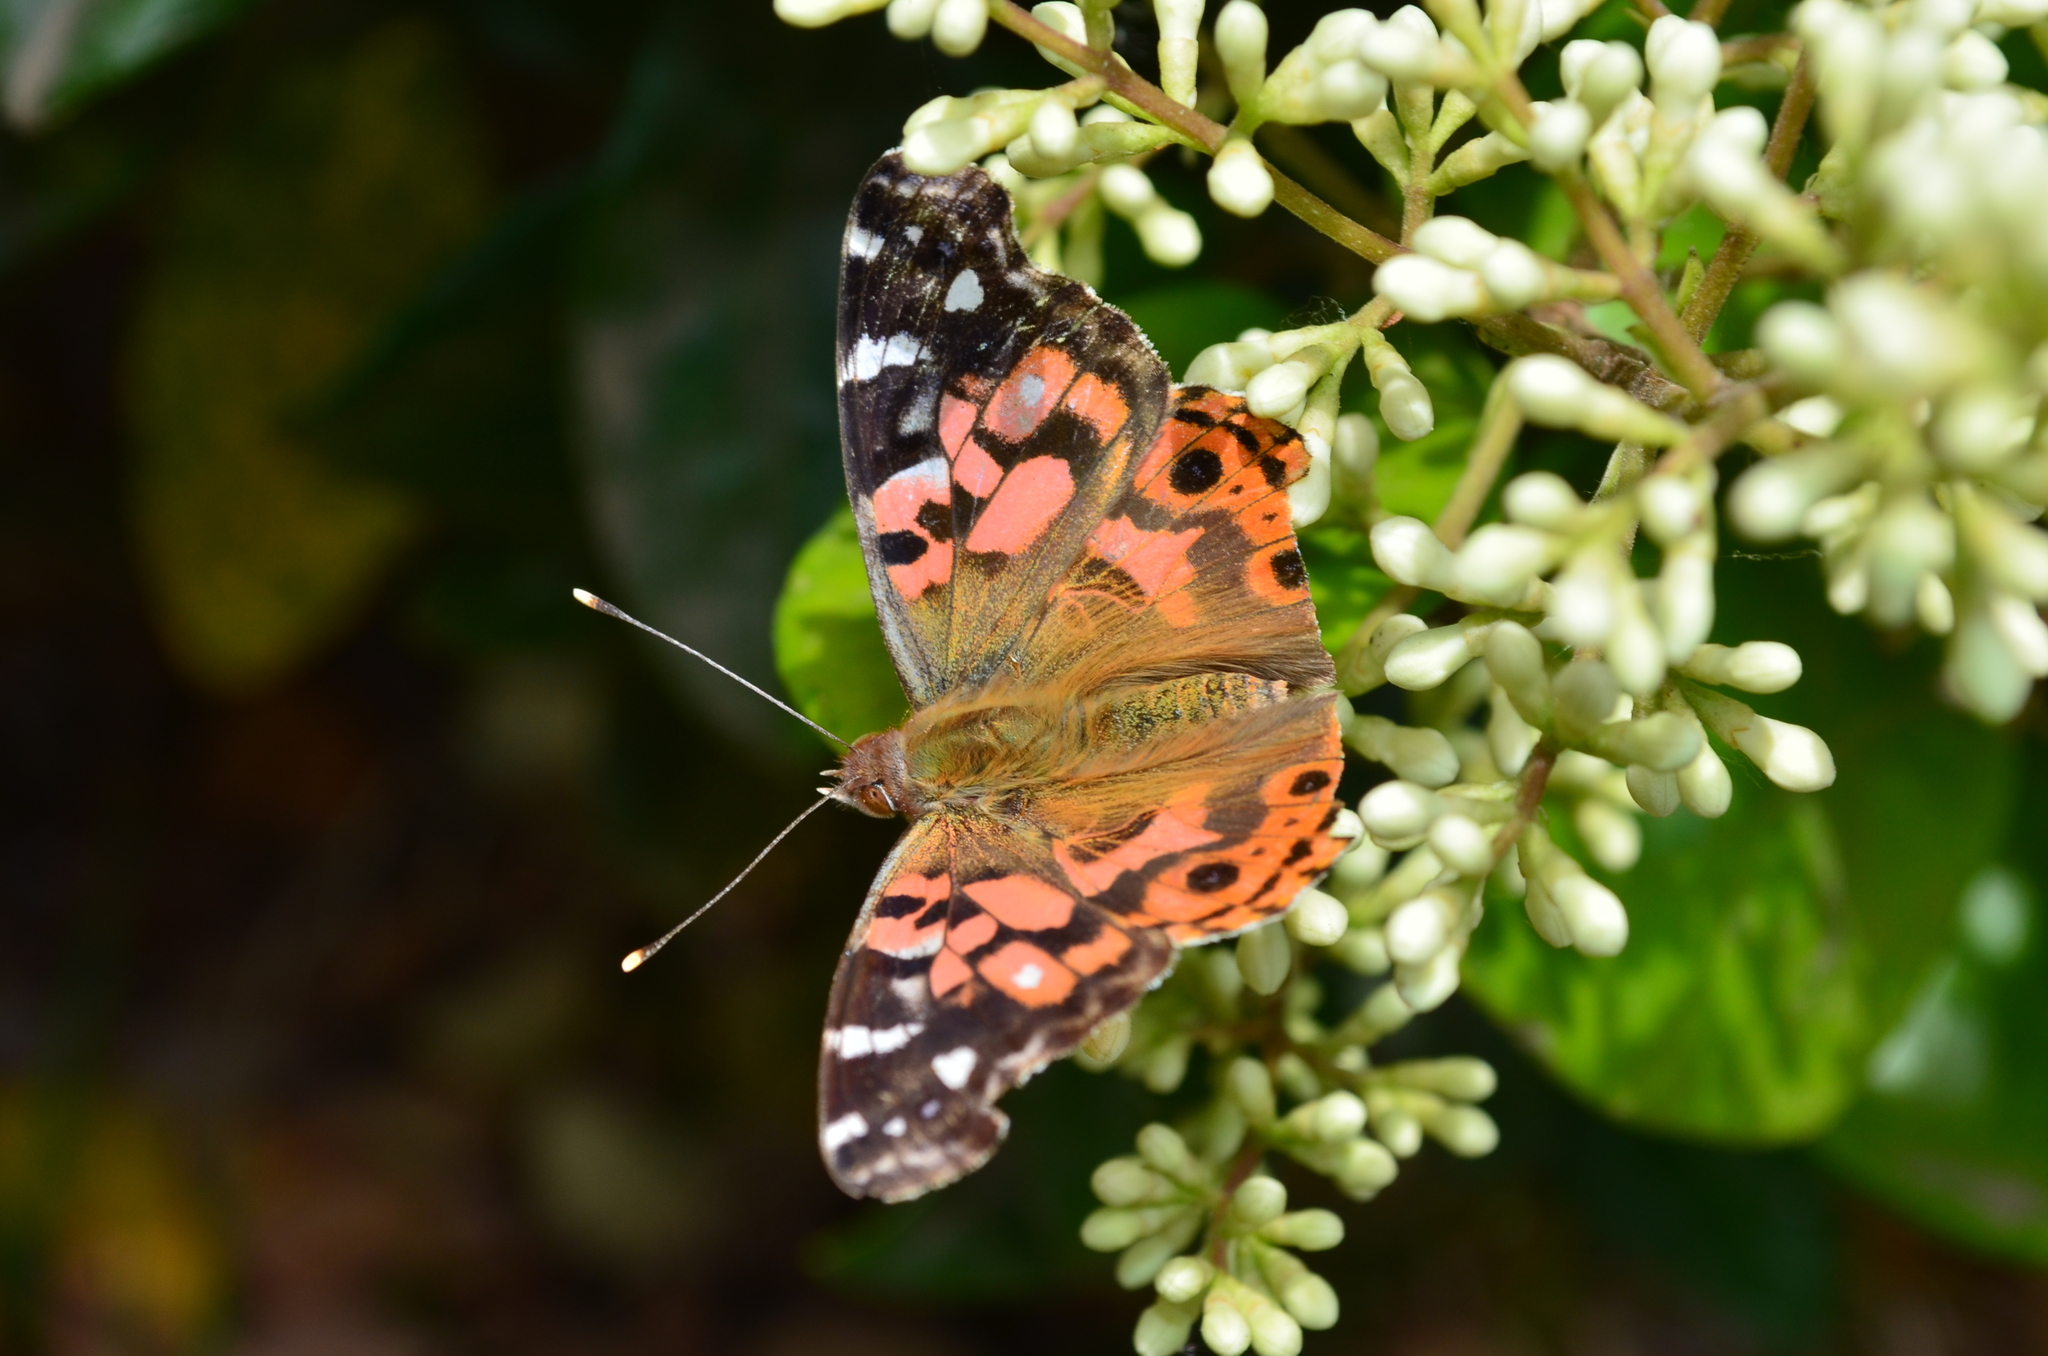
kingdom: Animalia
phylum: Arthropoda
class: Insecta
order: Lepidoptera
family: Nymphalidae
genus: Vanessa
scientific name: Vanessa braziliensis
